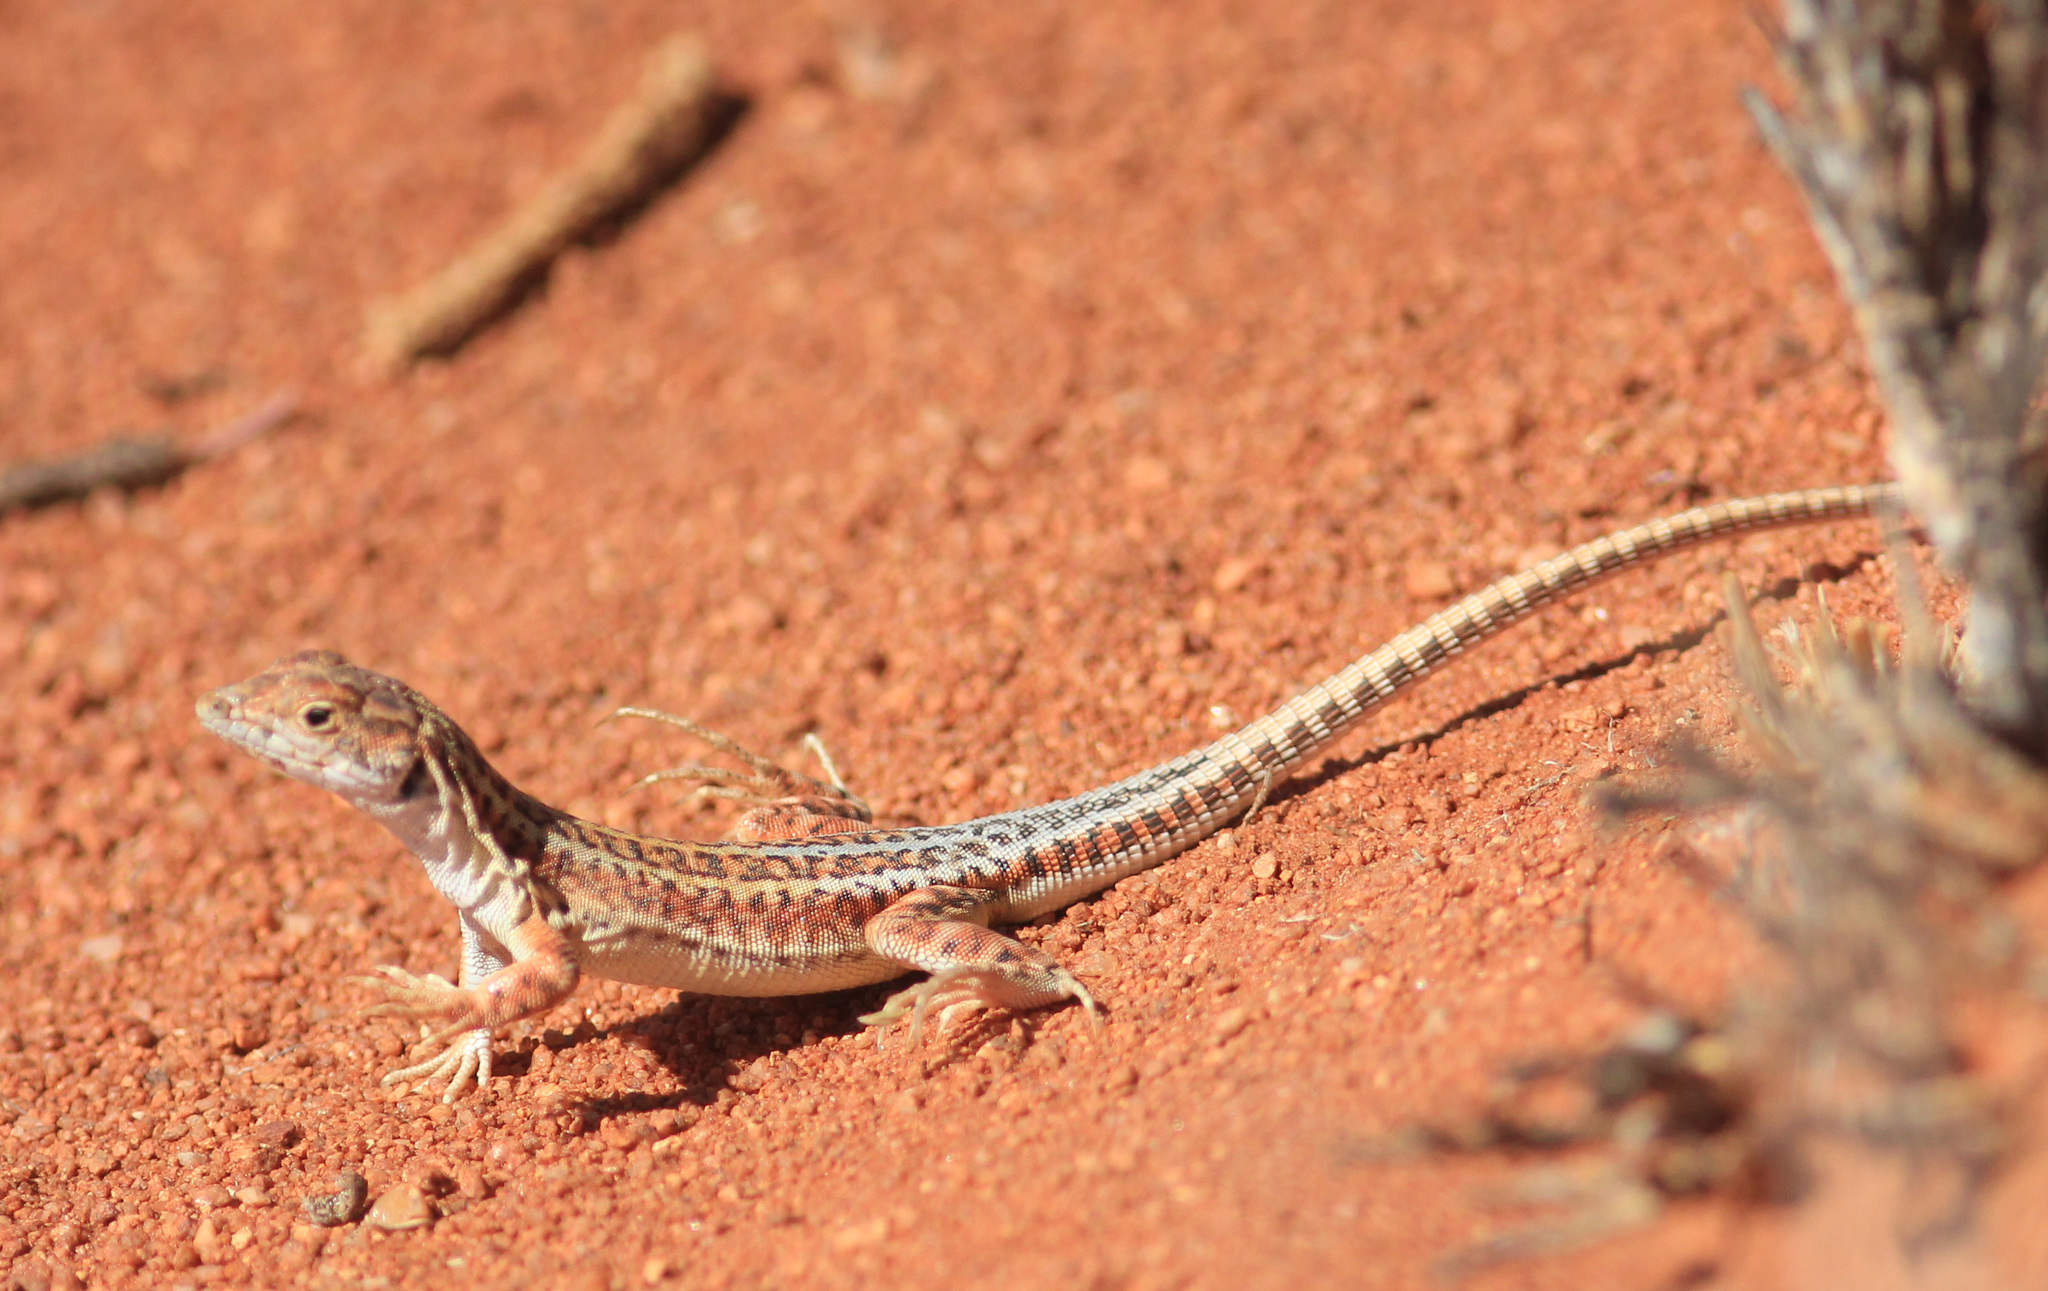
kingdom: Animalia
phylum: Chordata
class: Squamata
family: Lacertidae
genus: Meroles
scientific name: Meroles suborbitalis
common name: Spotted sand lizard
